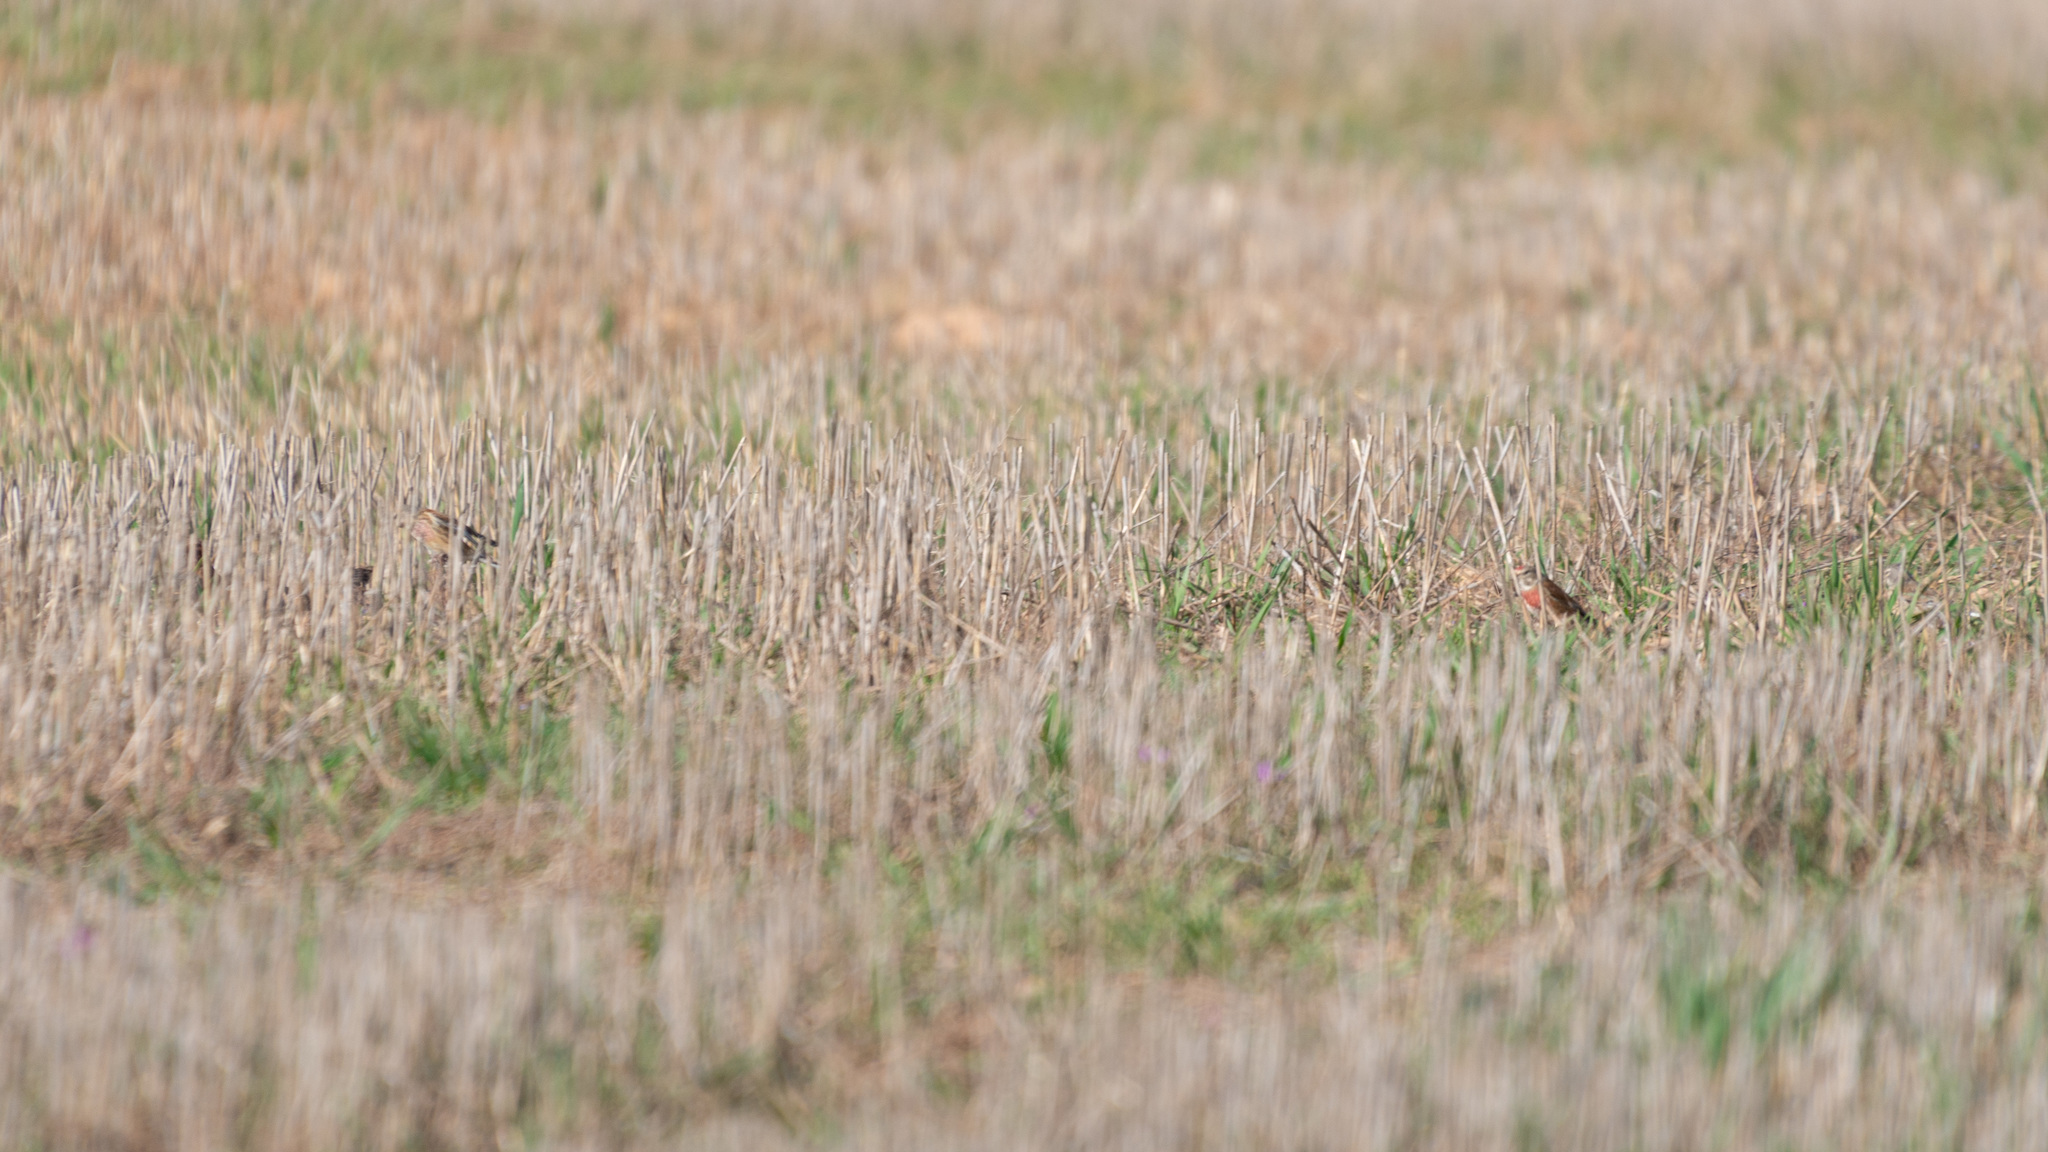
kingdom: Animalia
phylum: Chordata
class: Aves
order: Passeriformes
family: Fringillidae
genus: Linaria
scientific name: Linaria cannabina
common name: Common linnet
